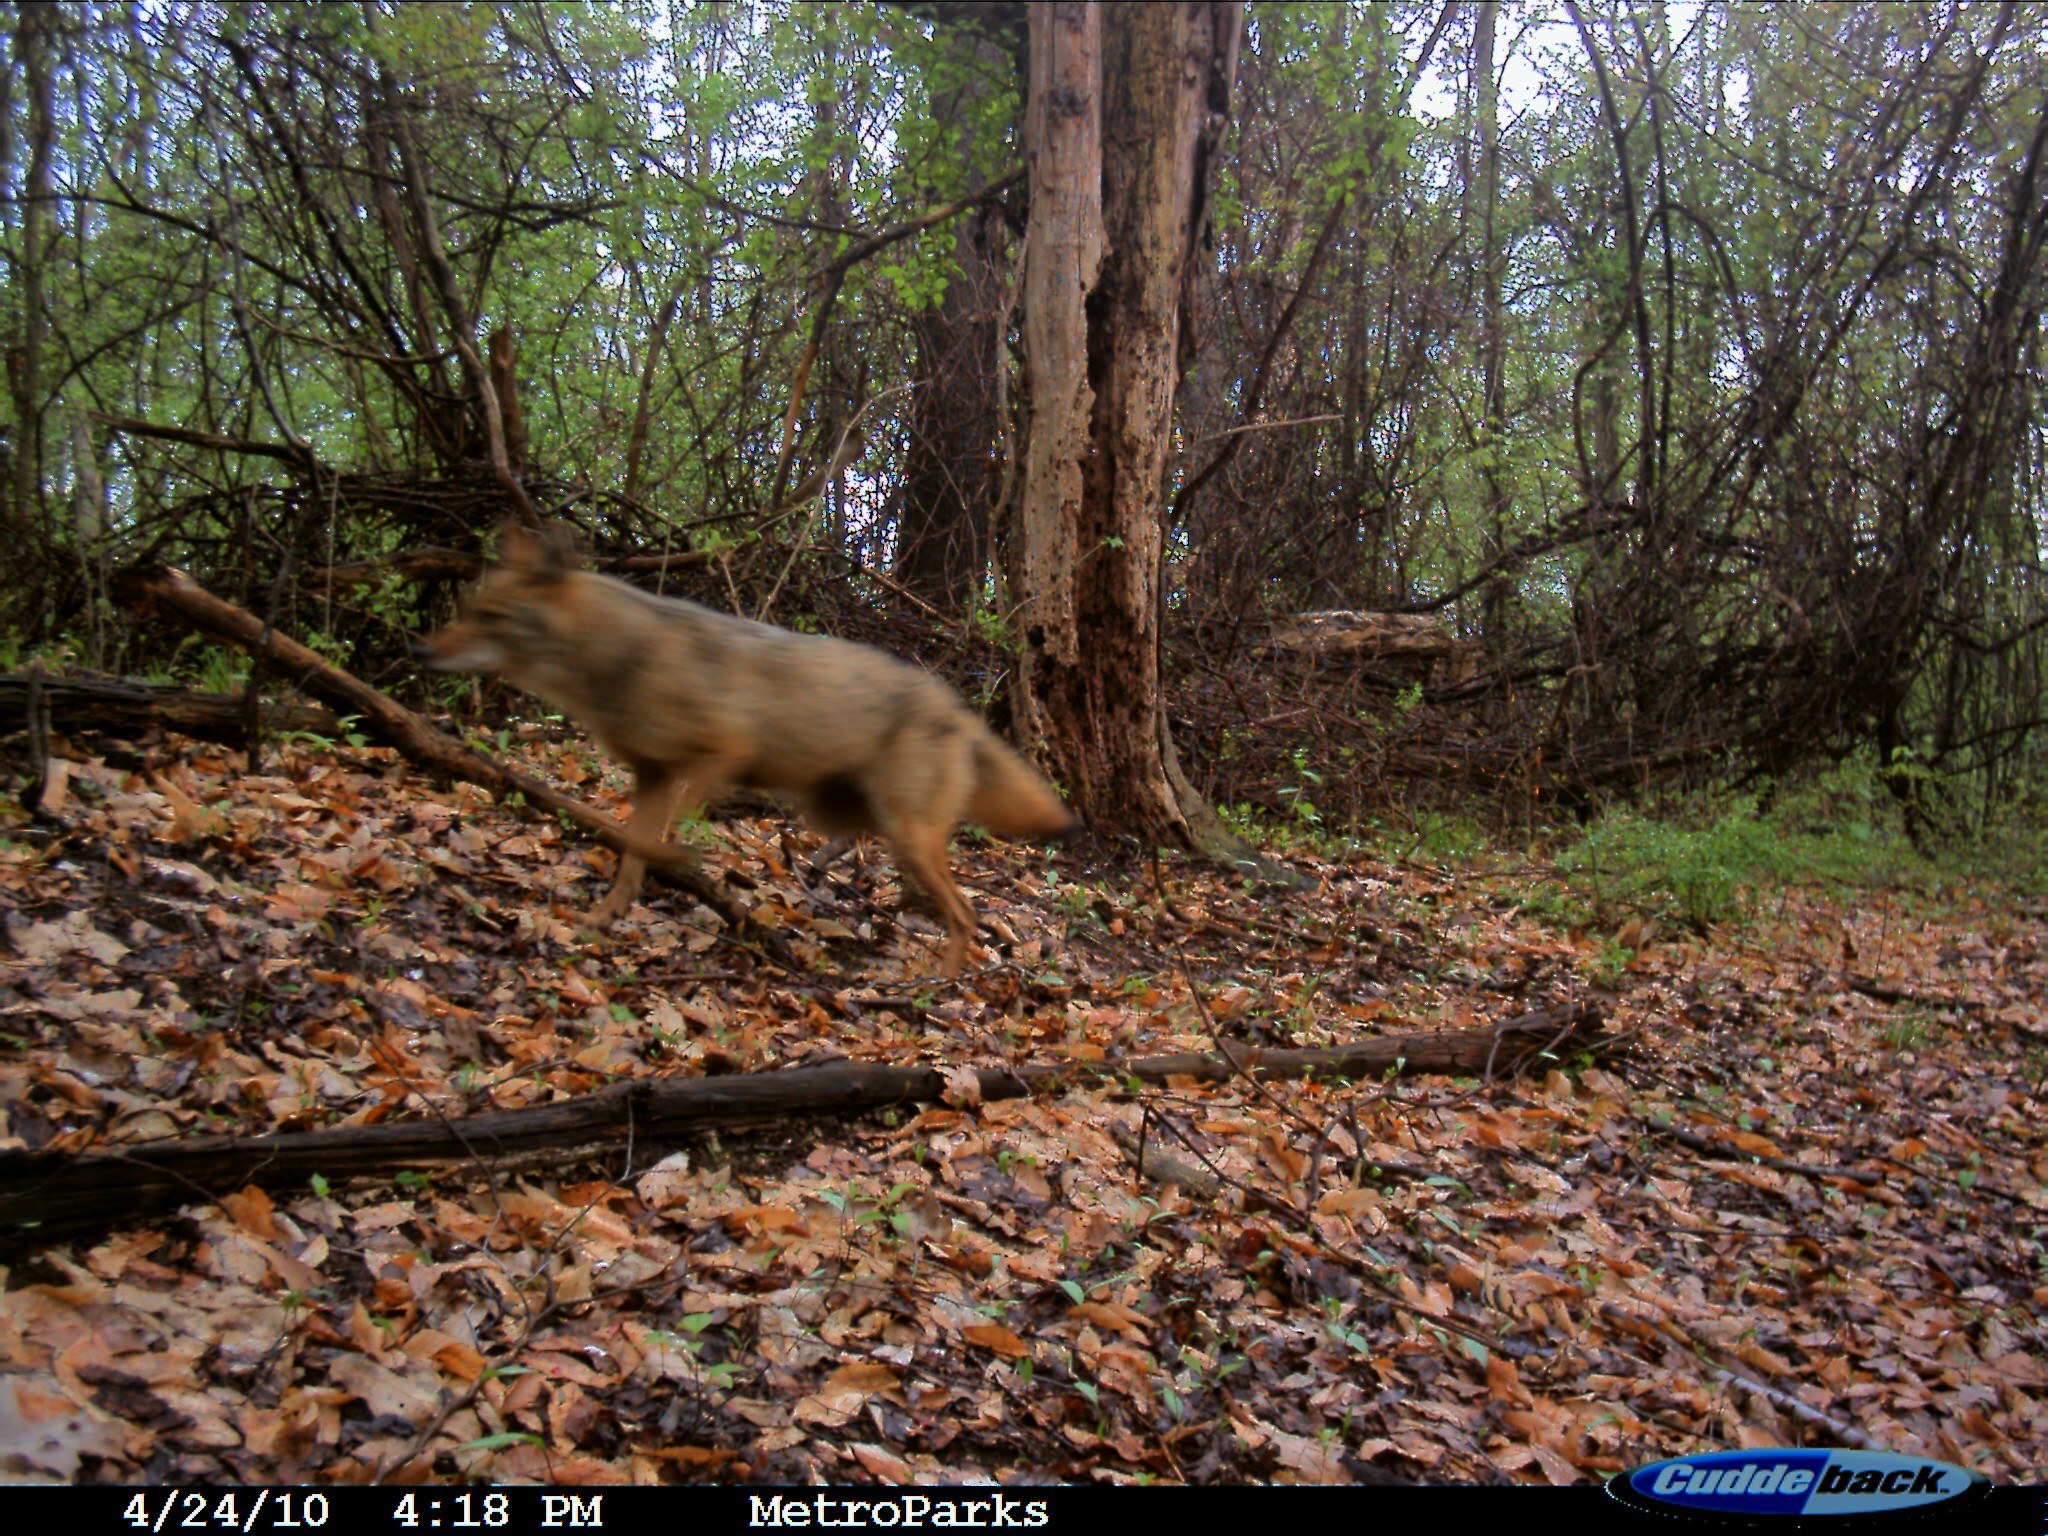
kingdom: Animalia
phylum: Chordata
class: Mammalia
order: Carnivora
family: Canidae
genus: Canis
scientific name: Canis latrans
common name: Coyote
